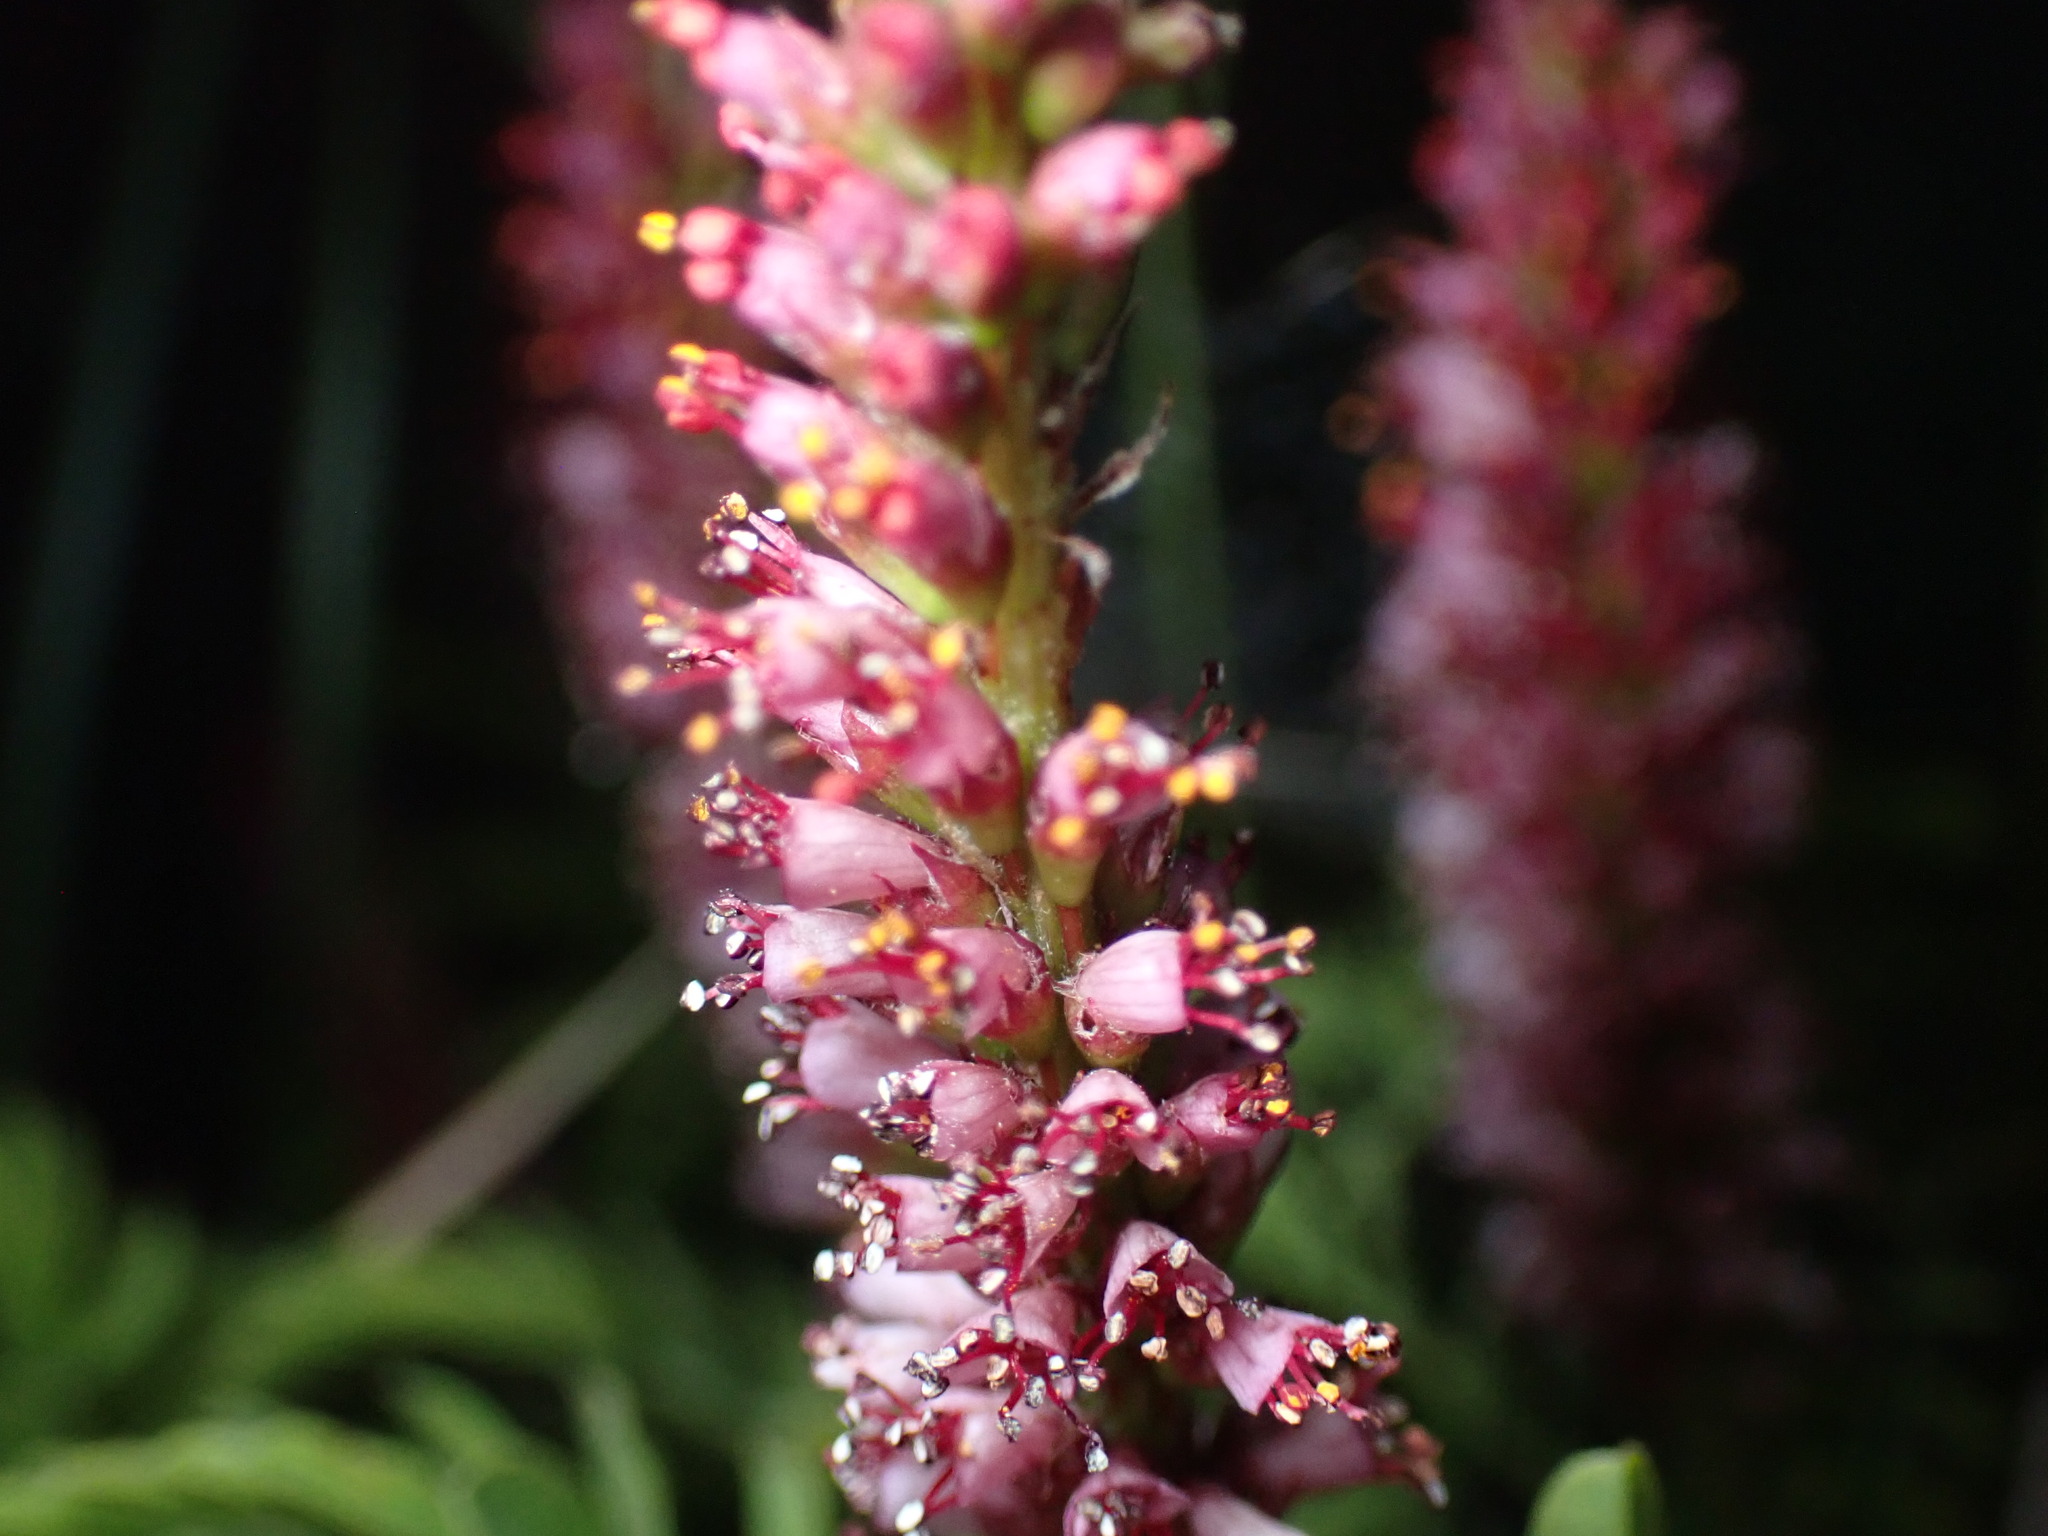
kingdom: Plantae
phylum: Tracheophyta
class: Magnoliopsida
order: Fabales
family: Fabaceae
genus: Amorpha
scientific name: Amorpha nana
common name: Fragrant false indigo
